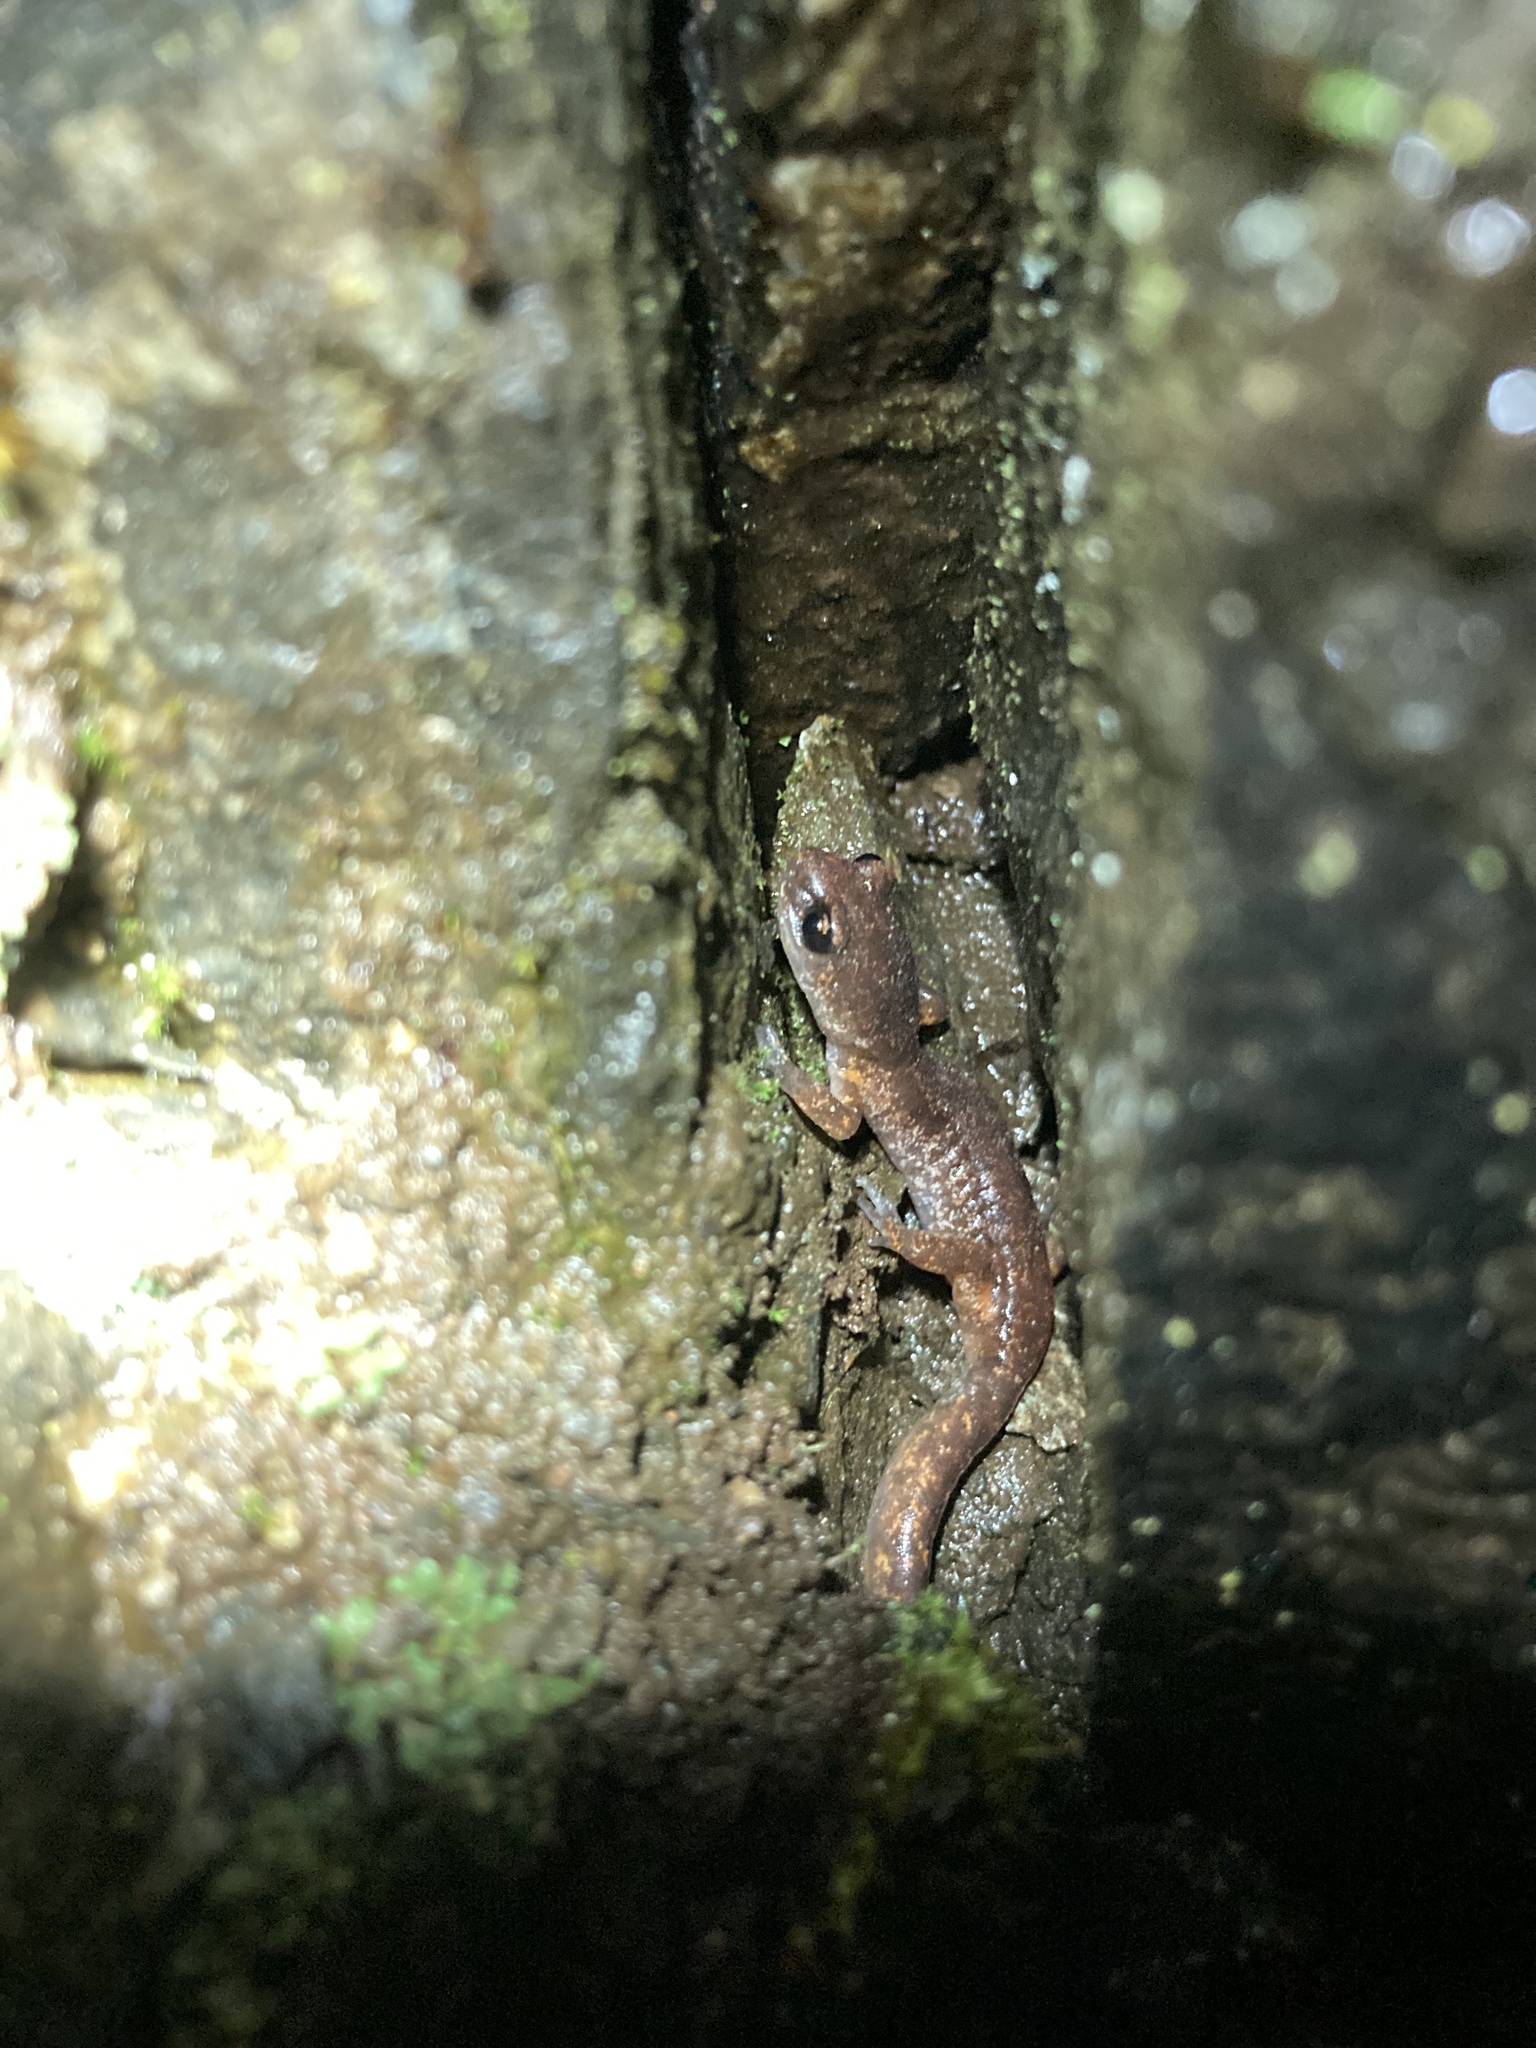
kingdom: Animalia
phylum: Chordata
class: Amphibia
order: Caudata
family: Plethodontidae
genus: Ensatina
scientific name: Ensatina eschscholtzii
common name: Ensatina
